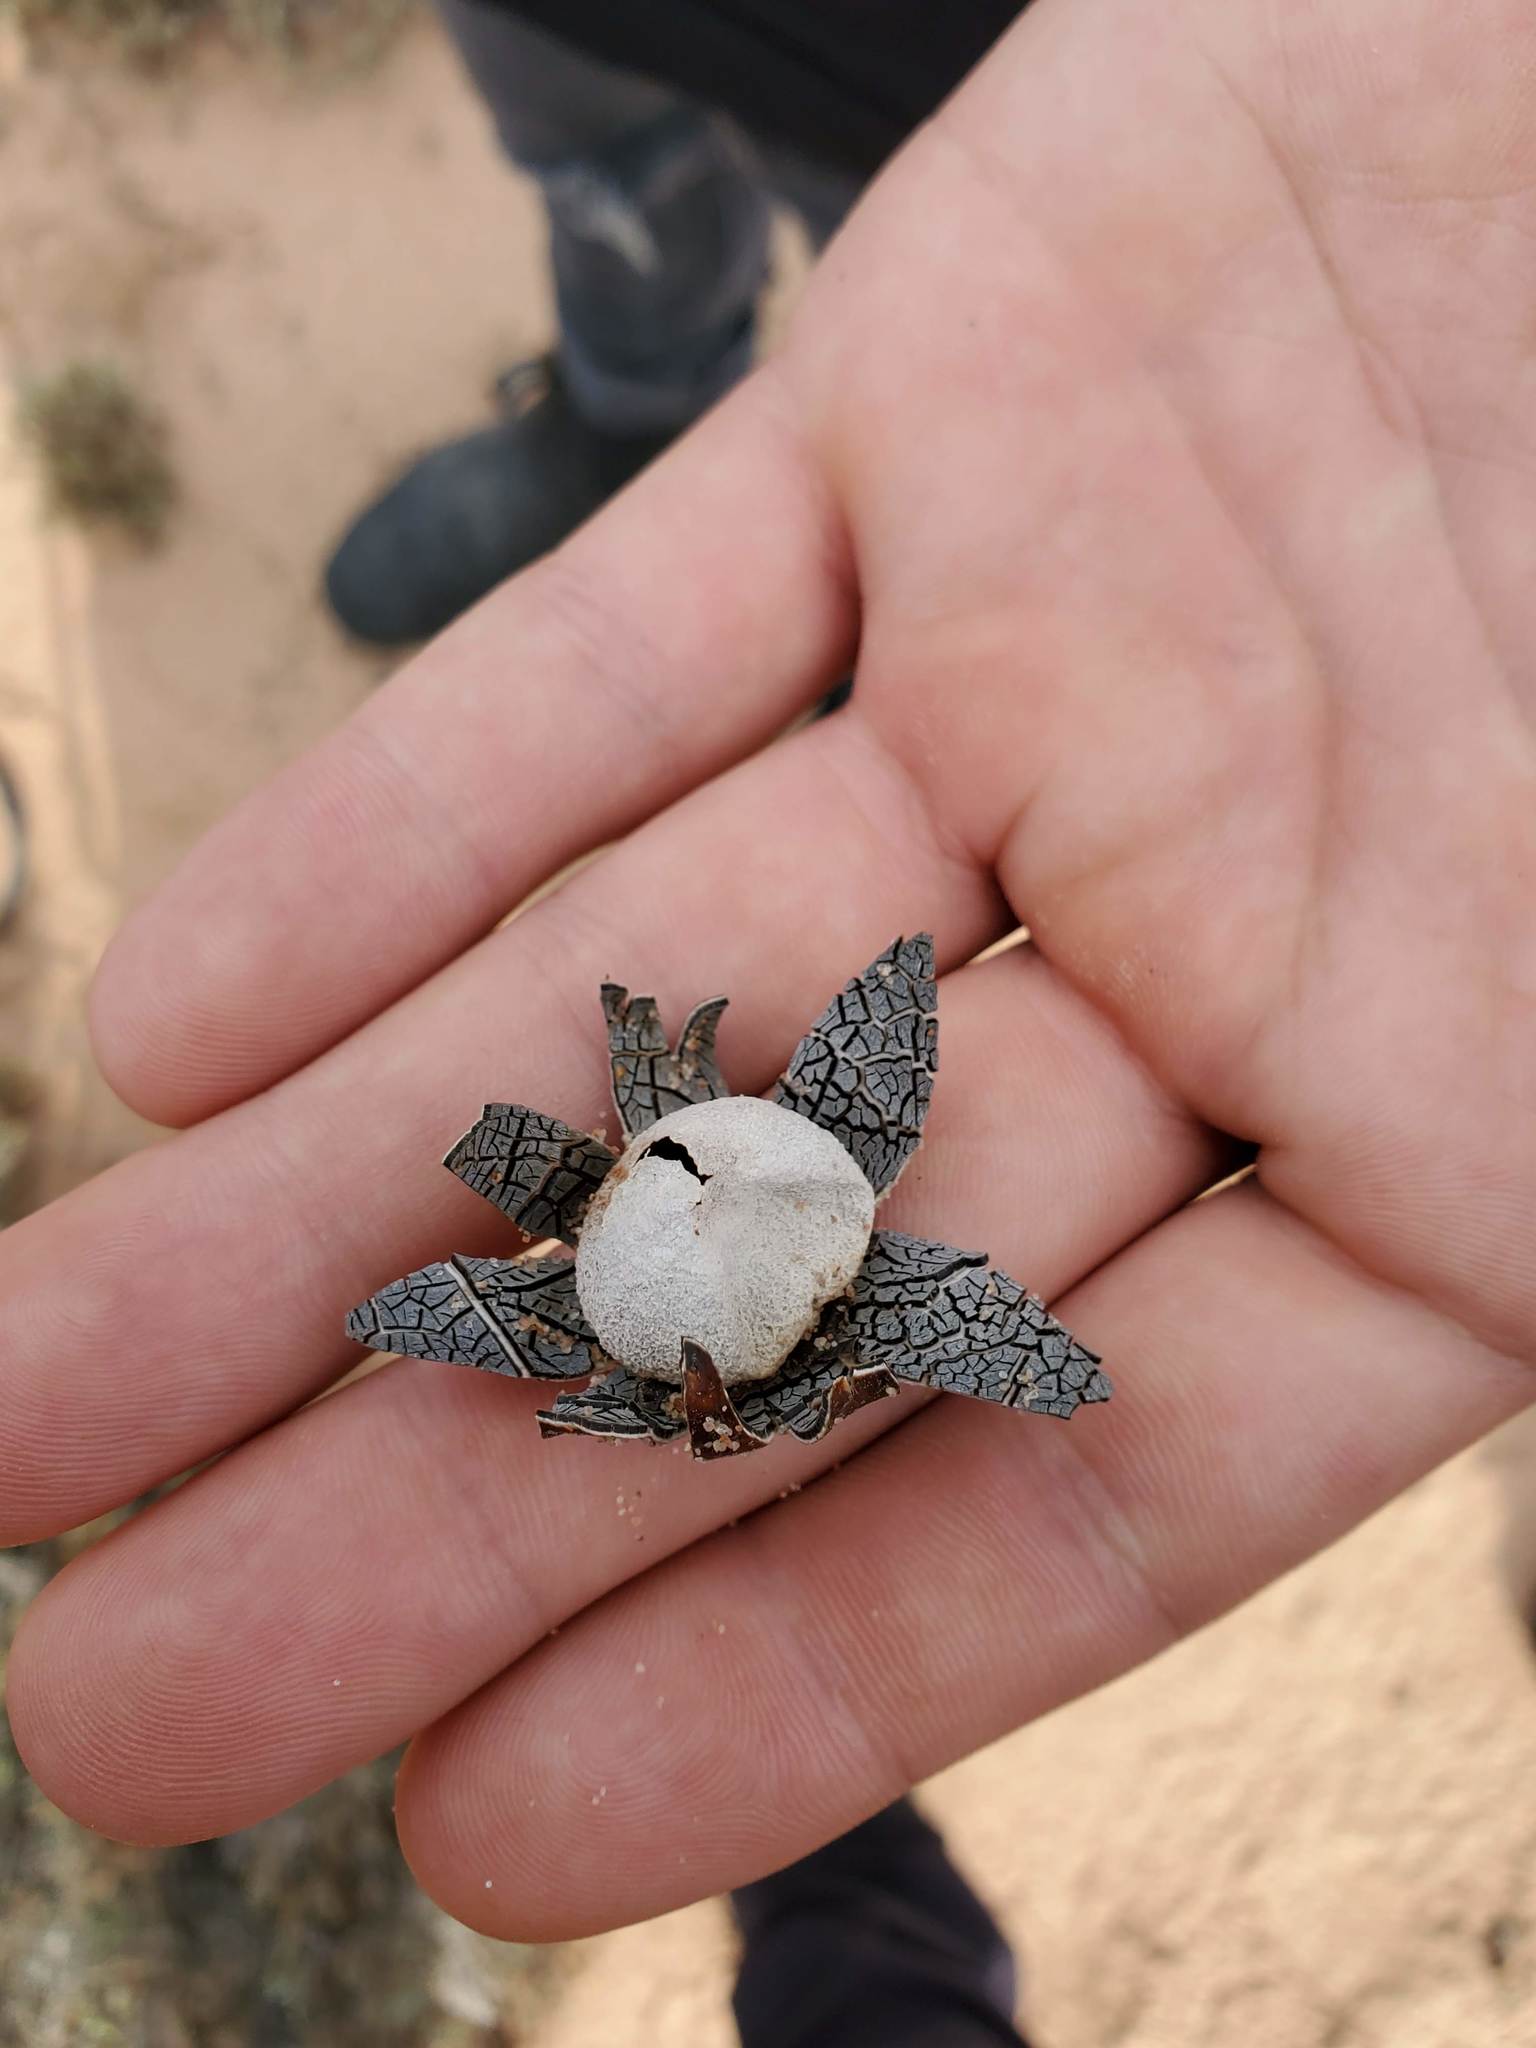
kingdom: Fungi
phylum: Basidiomycota
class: Agaricomycetes
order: Boletales
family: Diplocystidiaceae
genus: Astraeus
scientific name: Astraeus hygrometricus
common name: Barometer earthstar
